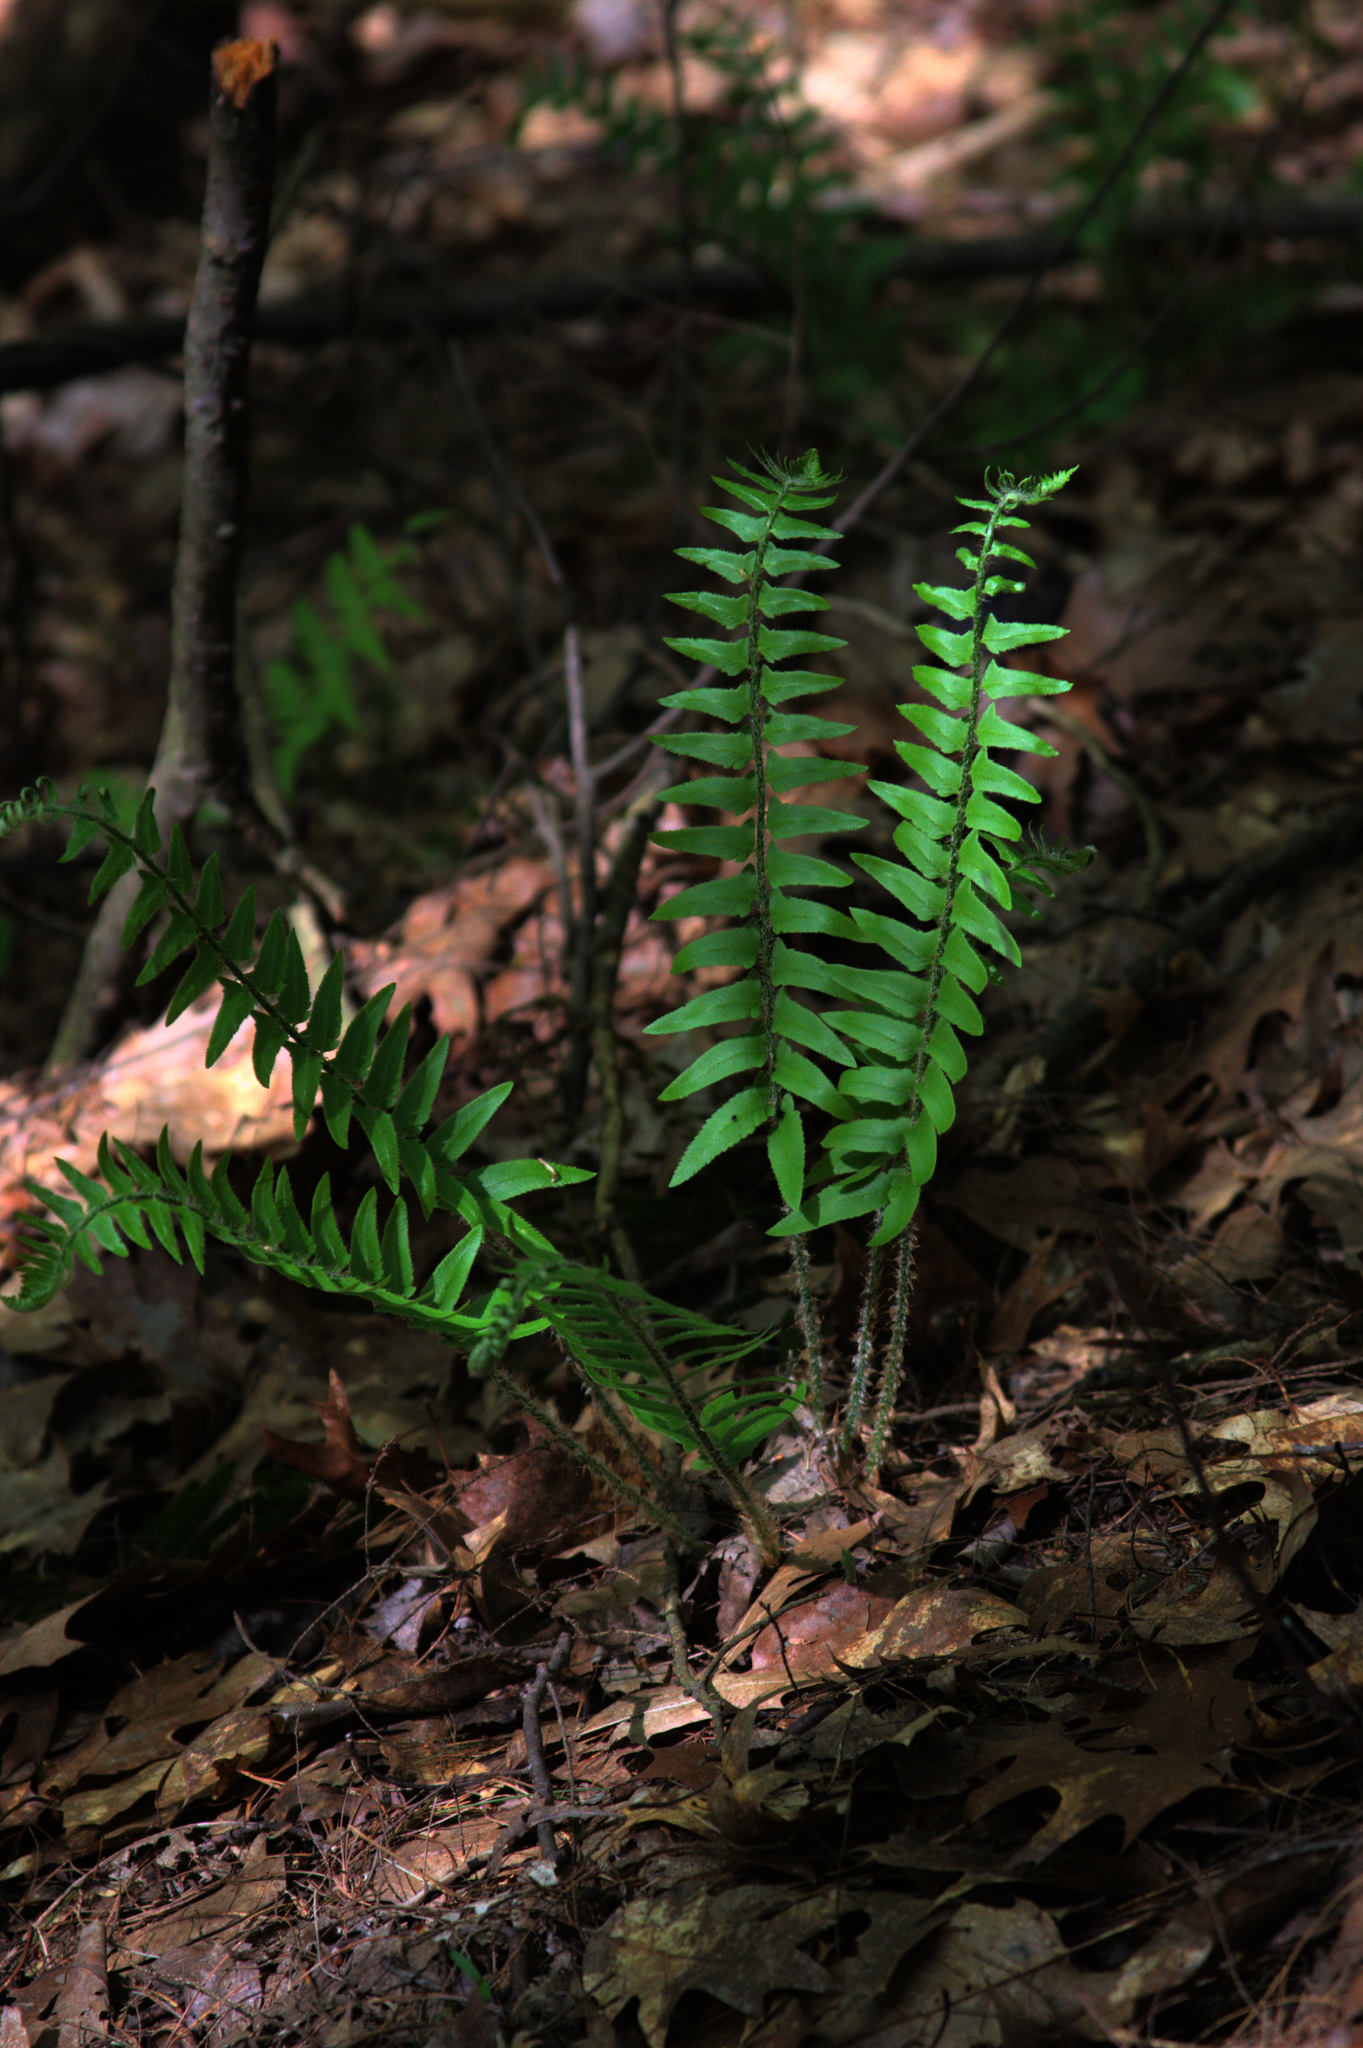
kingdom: Plantae
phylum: Tracheophyta
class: Polypodiopsida
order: Polypodiales
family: Dryopteridaceae
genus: Polystichum
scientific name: Polystichum acrostichoides
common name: Christmas fern
